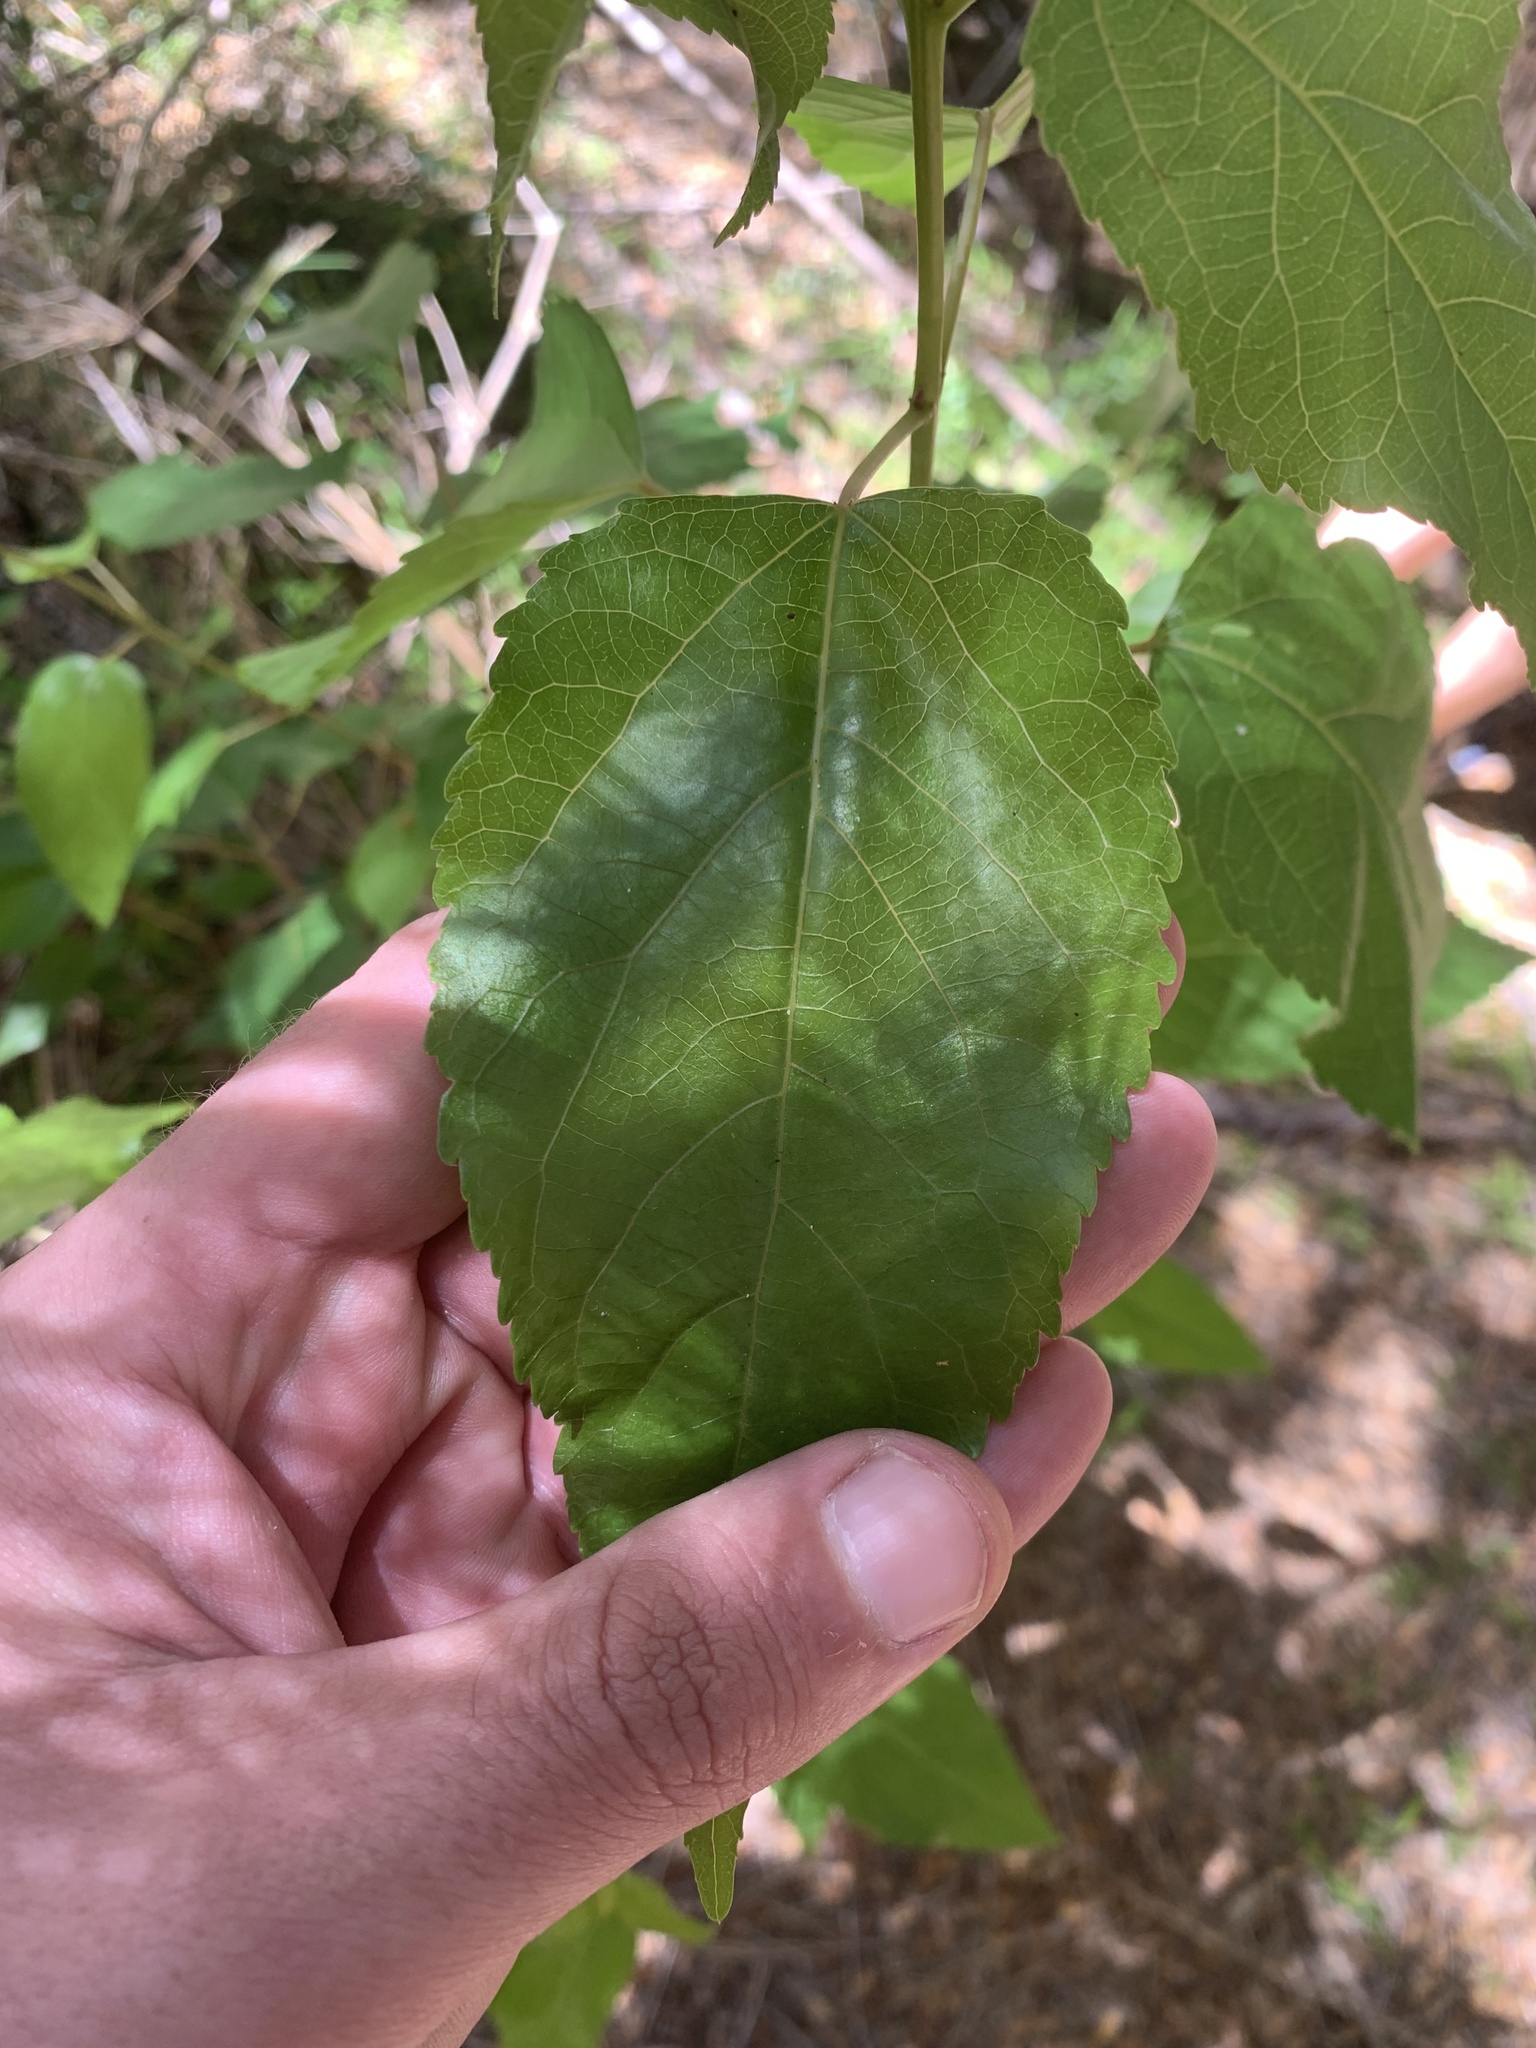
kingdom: Plantae
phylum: Tracheophyta
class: Magnoliopsida
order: Oxalidales
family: Elaeocarpaceae
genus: Aristotelia
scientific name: Aristotelia chilensis
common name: Maquei
